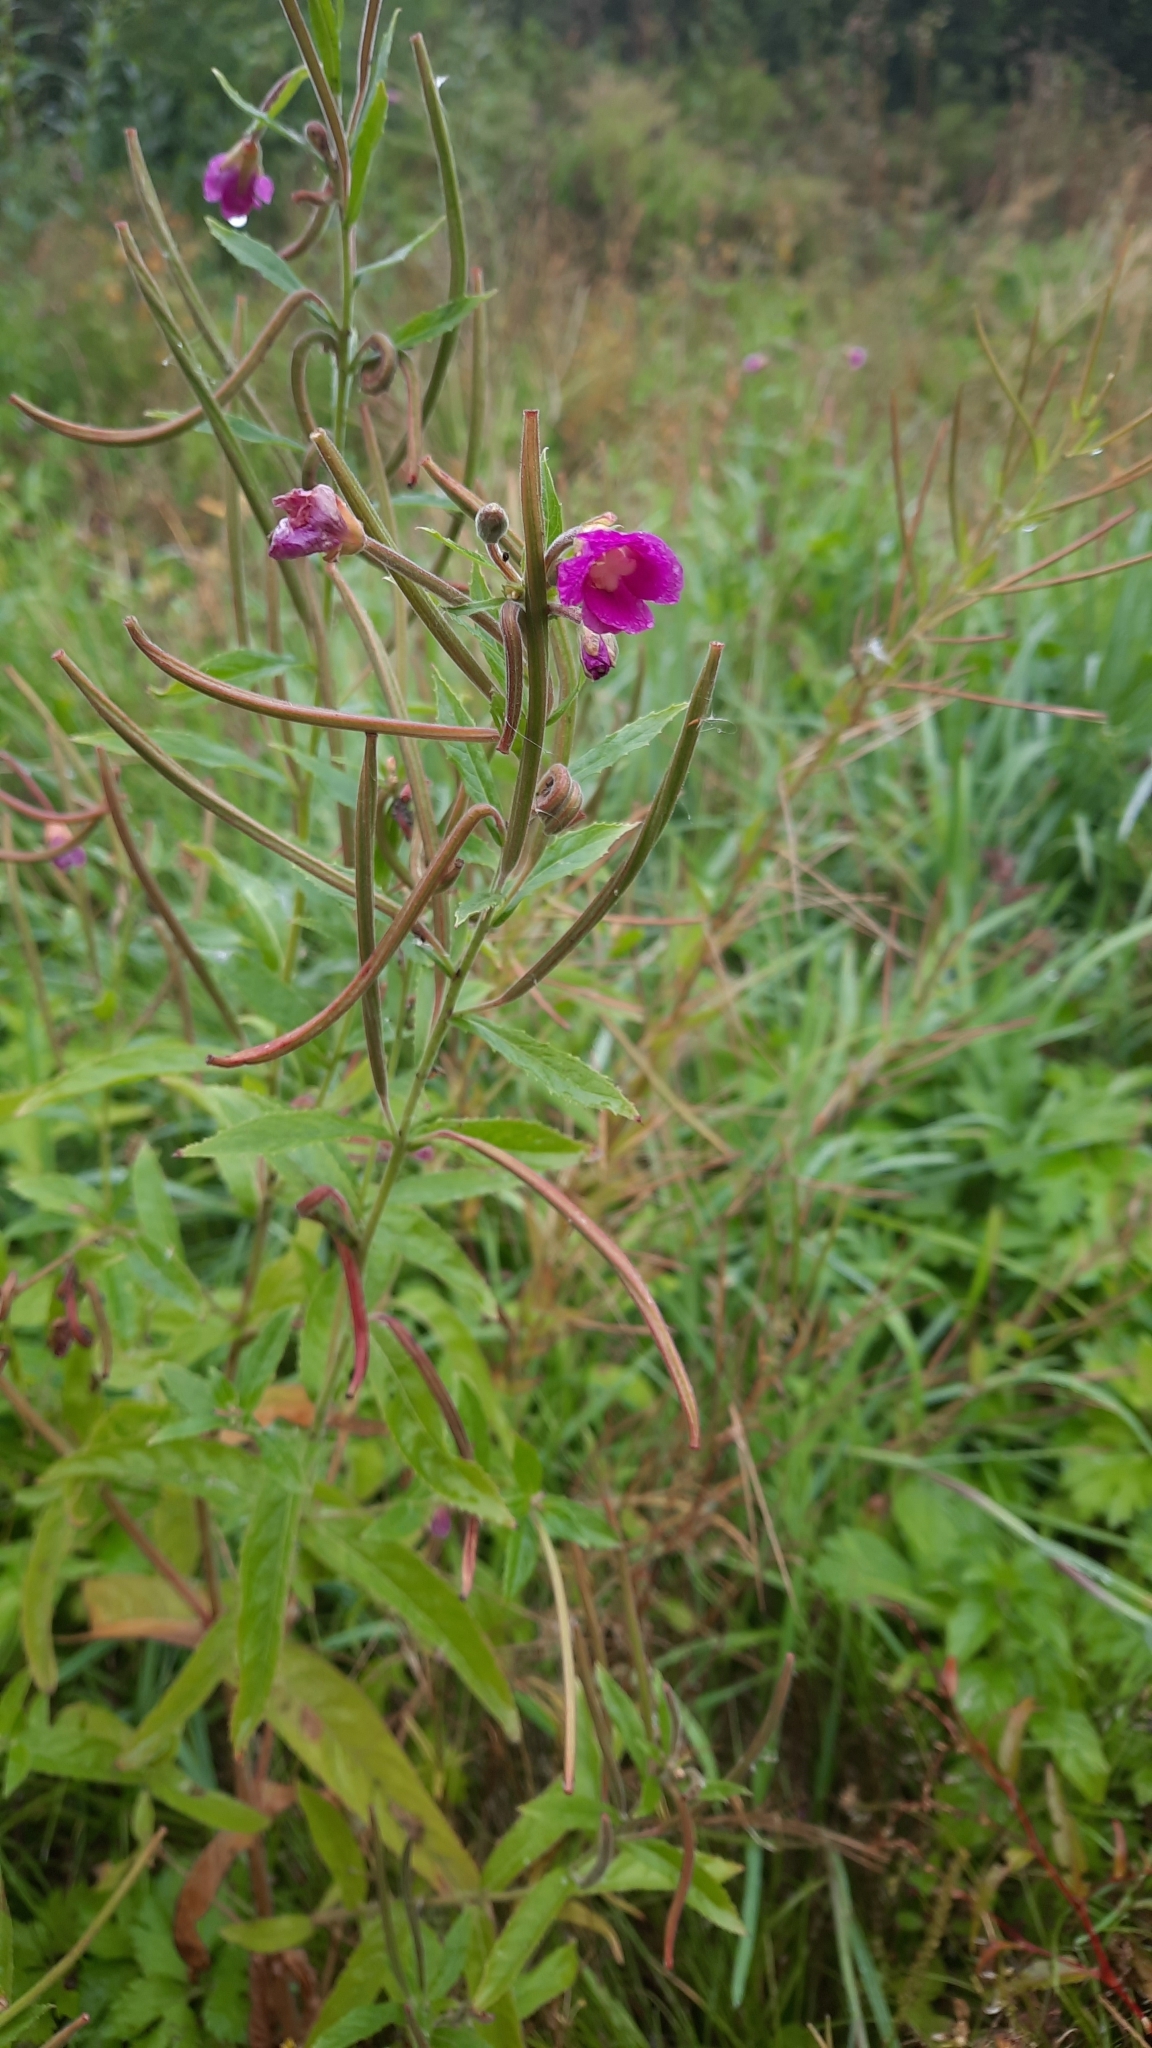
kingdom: Plantae
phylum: Tracheophyta
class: Magnoliopsida
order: Myrtales
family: Onagraceae
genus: Epilobium
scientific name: Epilobium hirsutum
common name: Great willowherb
